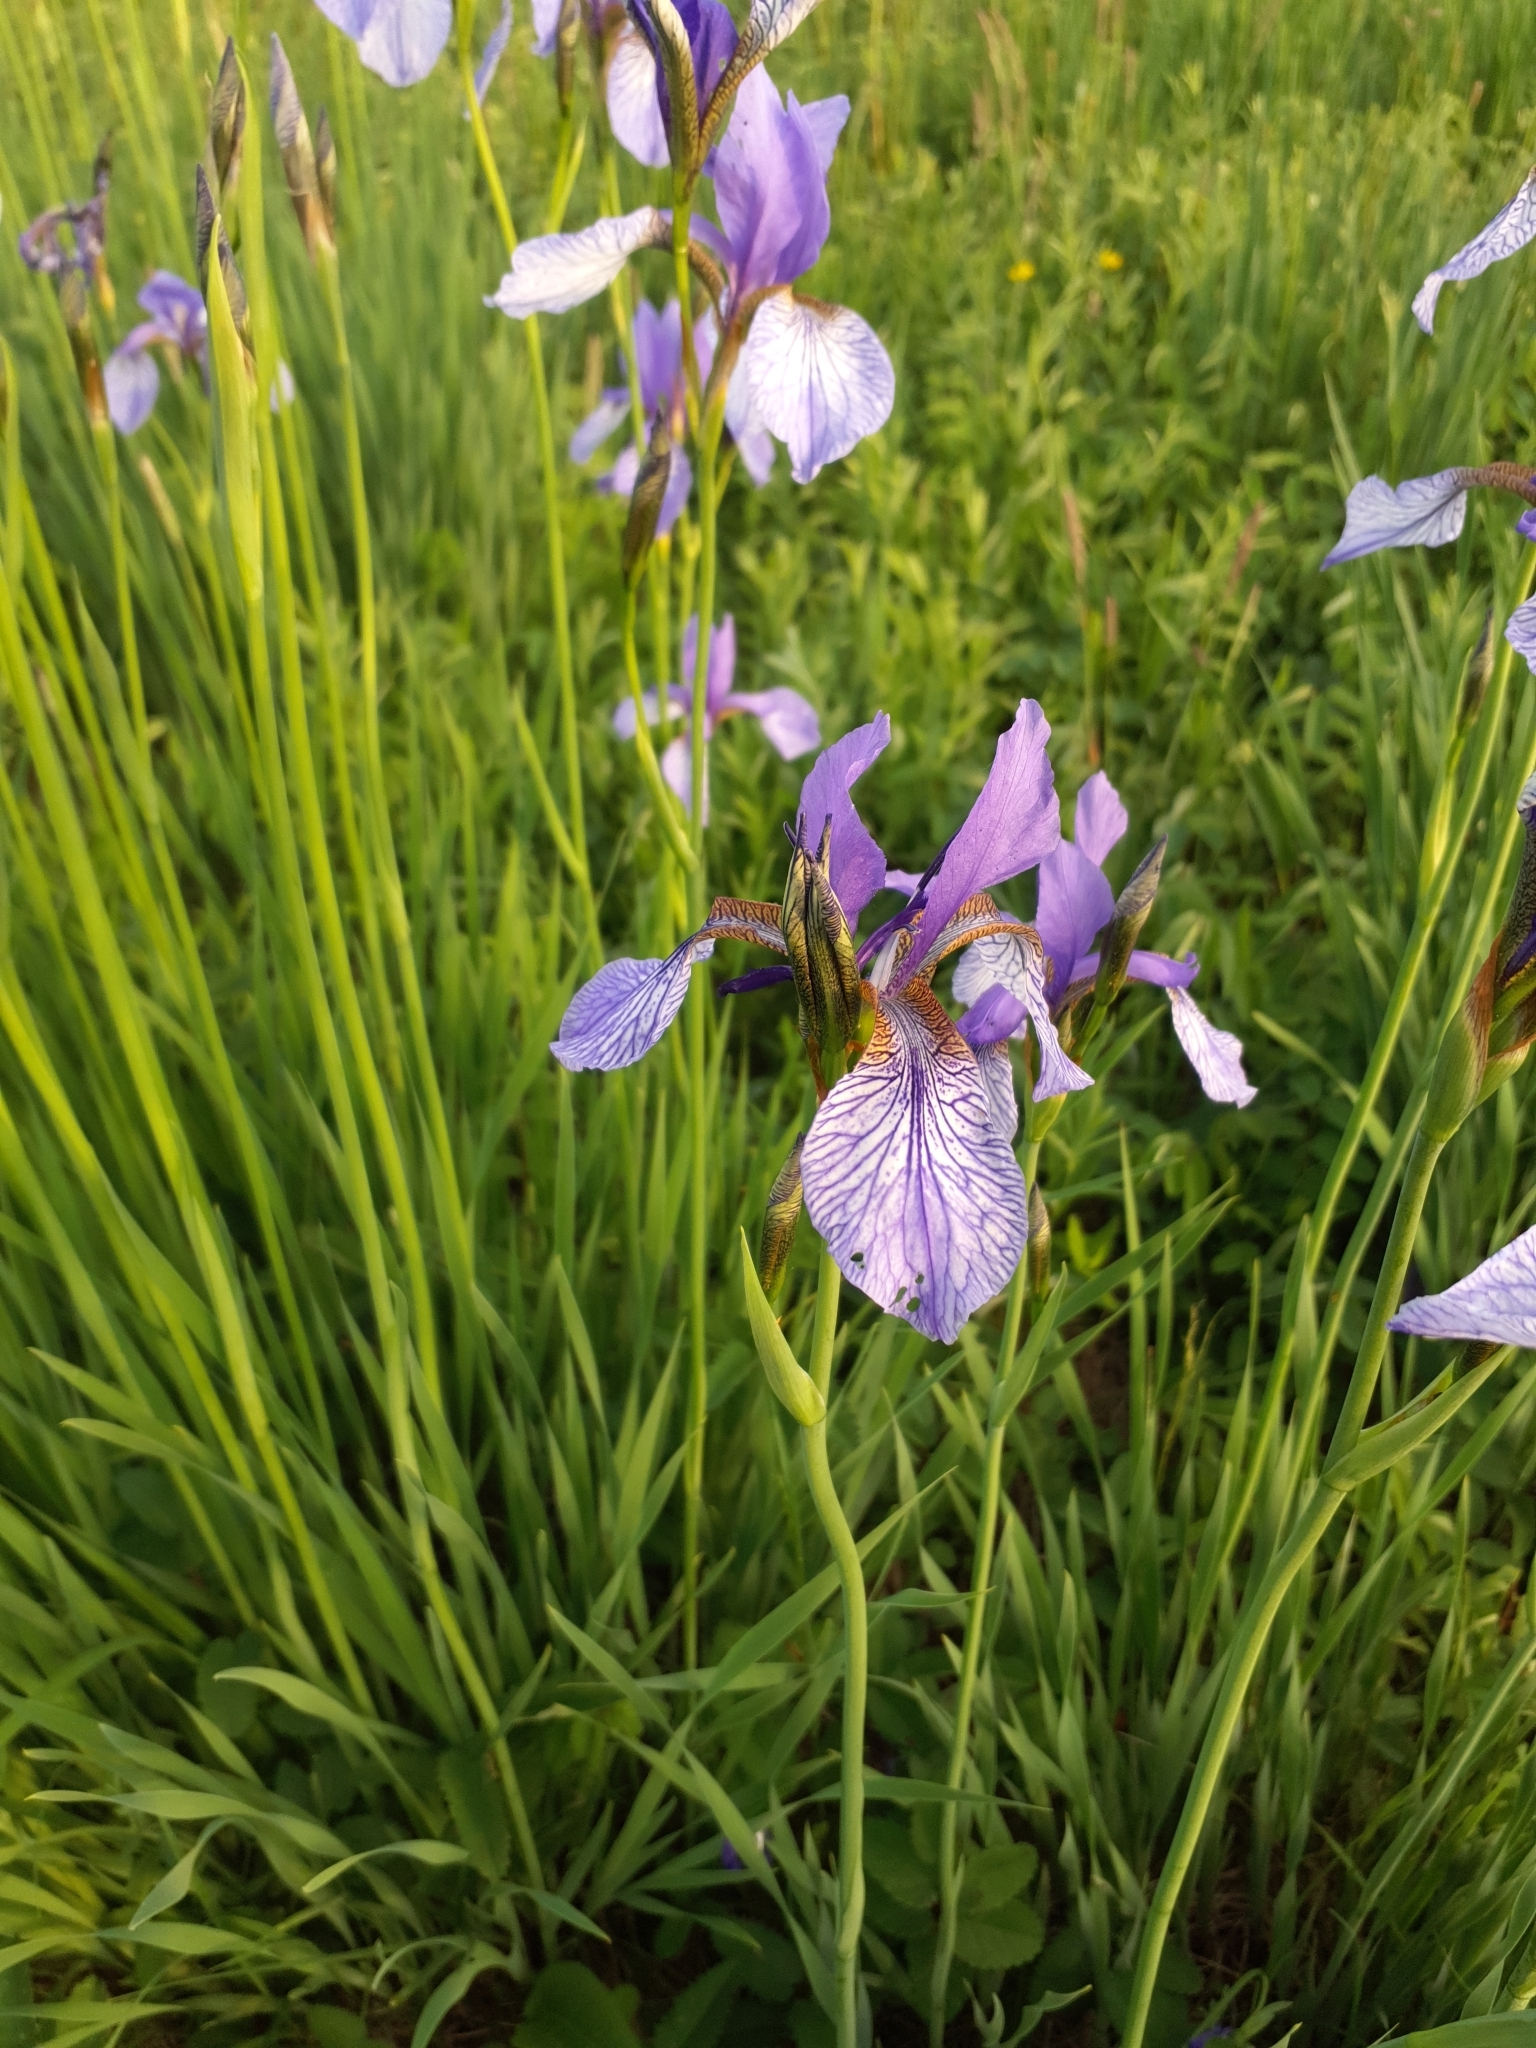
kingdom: Plantae
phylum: Tracheophyta
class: Liliopsida
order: Asparagales
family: Iridaceae
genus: Iris
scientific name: Iris sibirica
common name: Siberian iris
